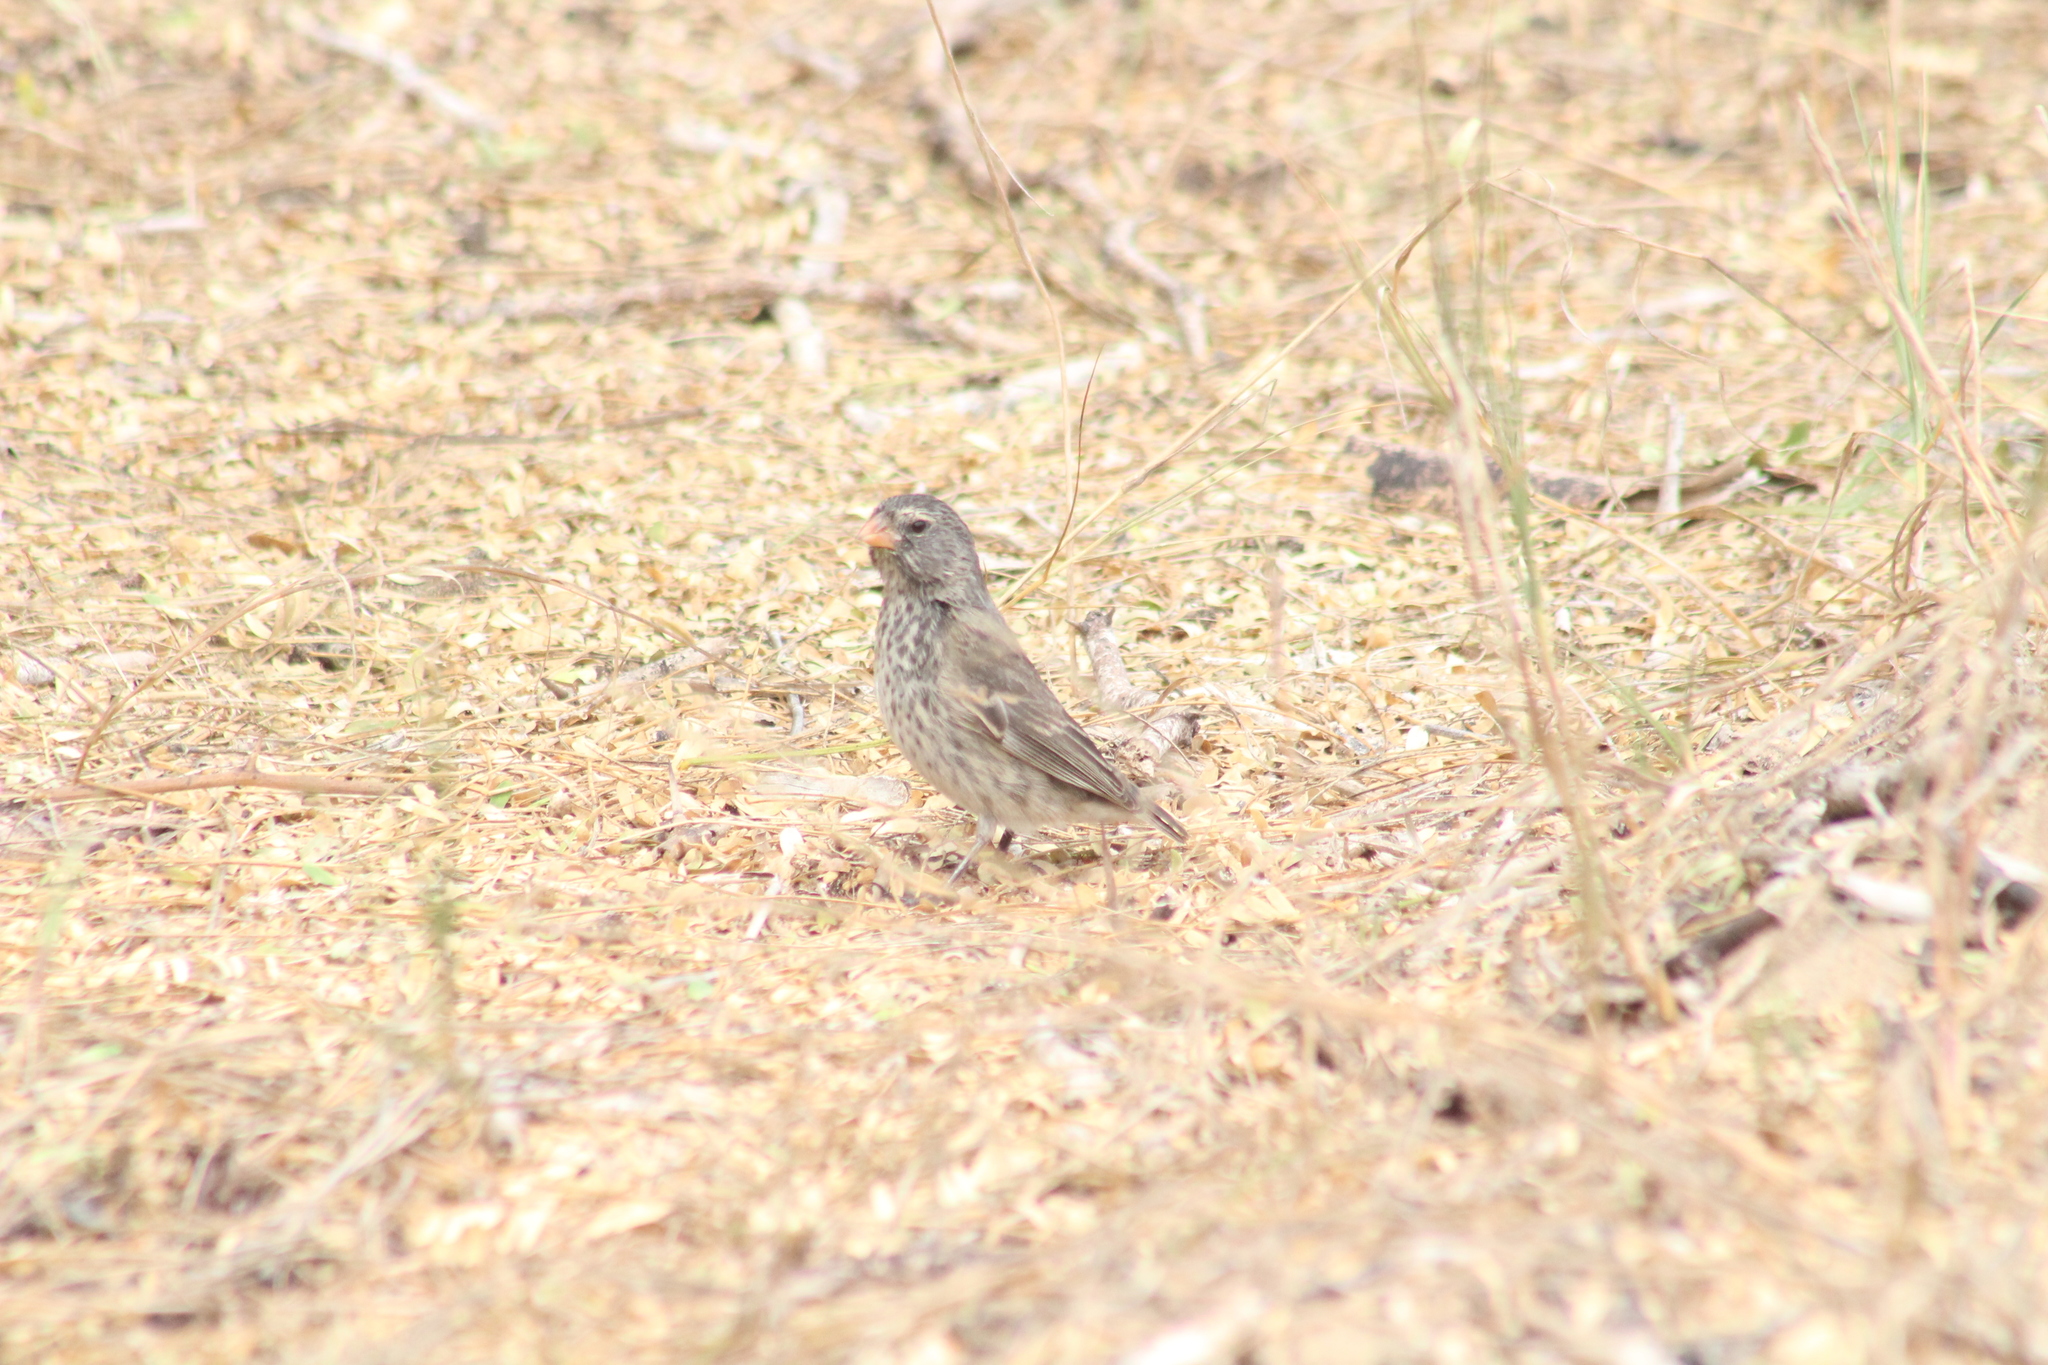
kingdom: Animalia
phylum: Chordata
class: Aves
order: Passeriformes
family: Thraupidae
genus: Geospiza
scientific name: Geospiza fortis
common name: Medium ground finch
